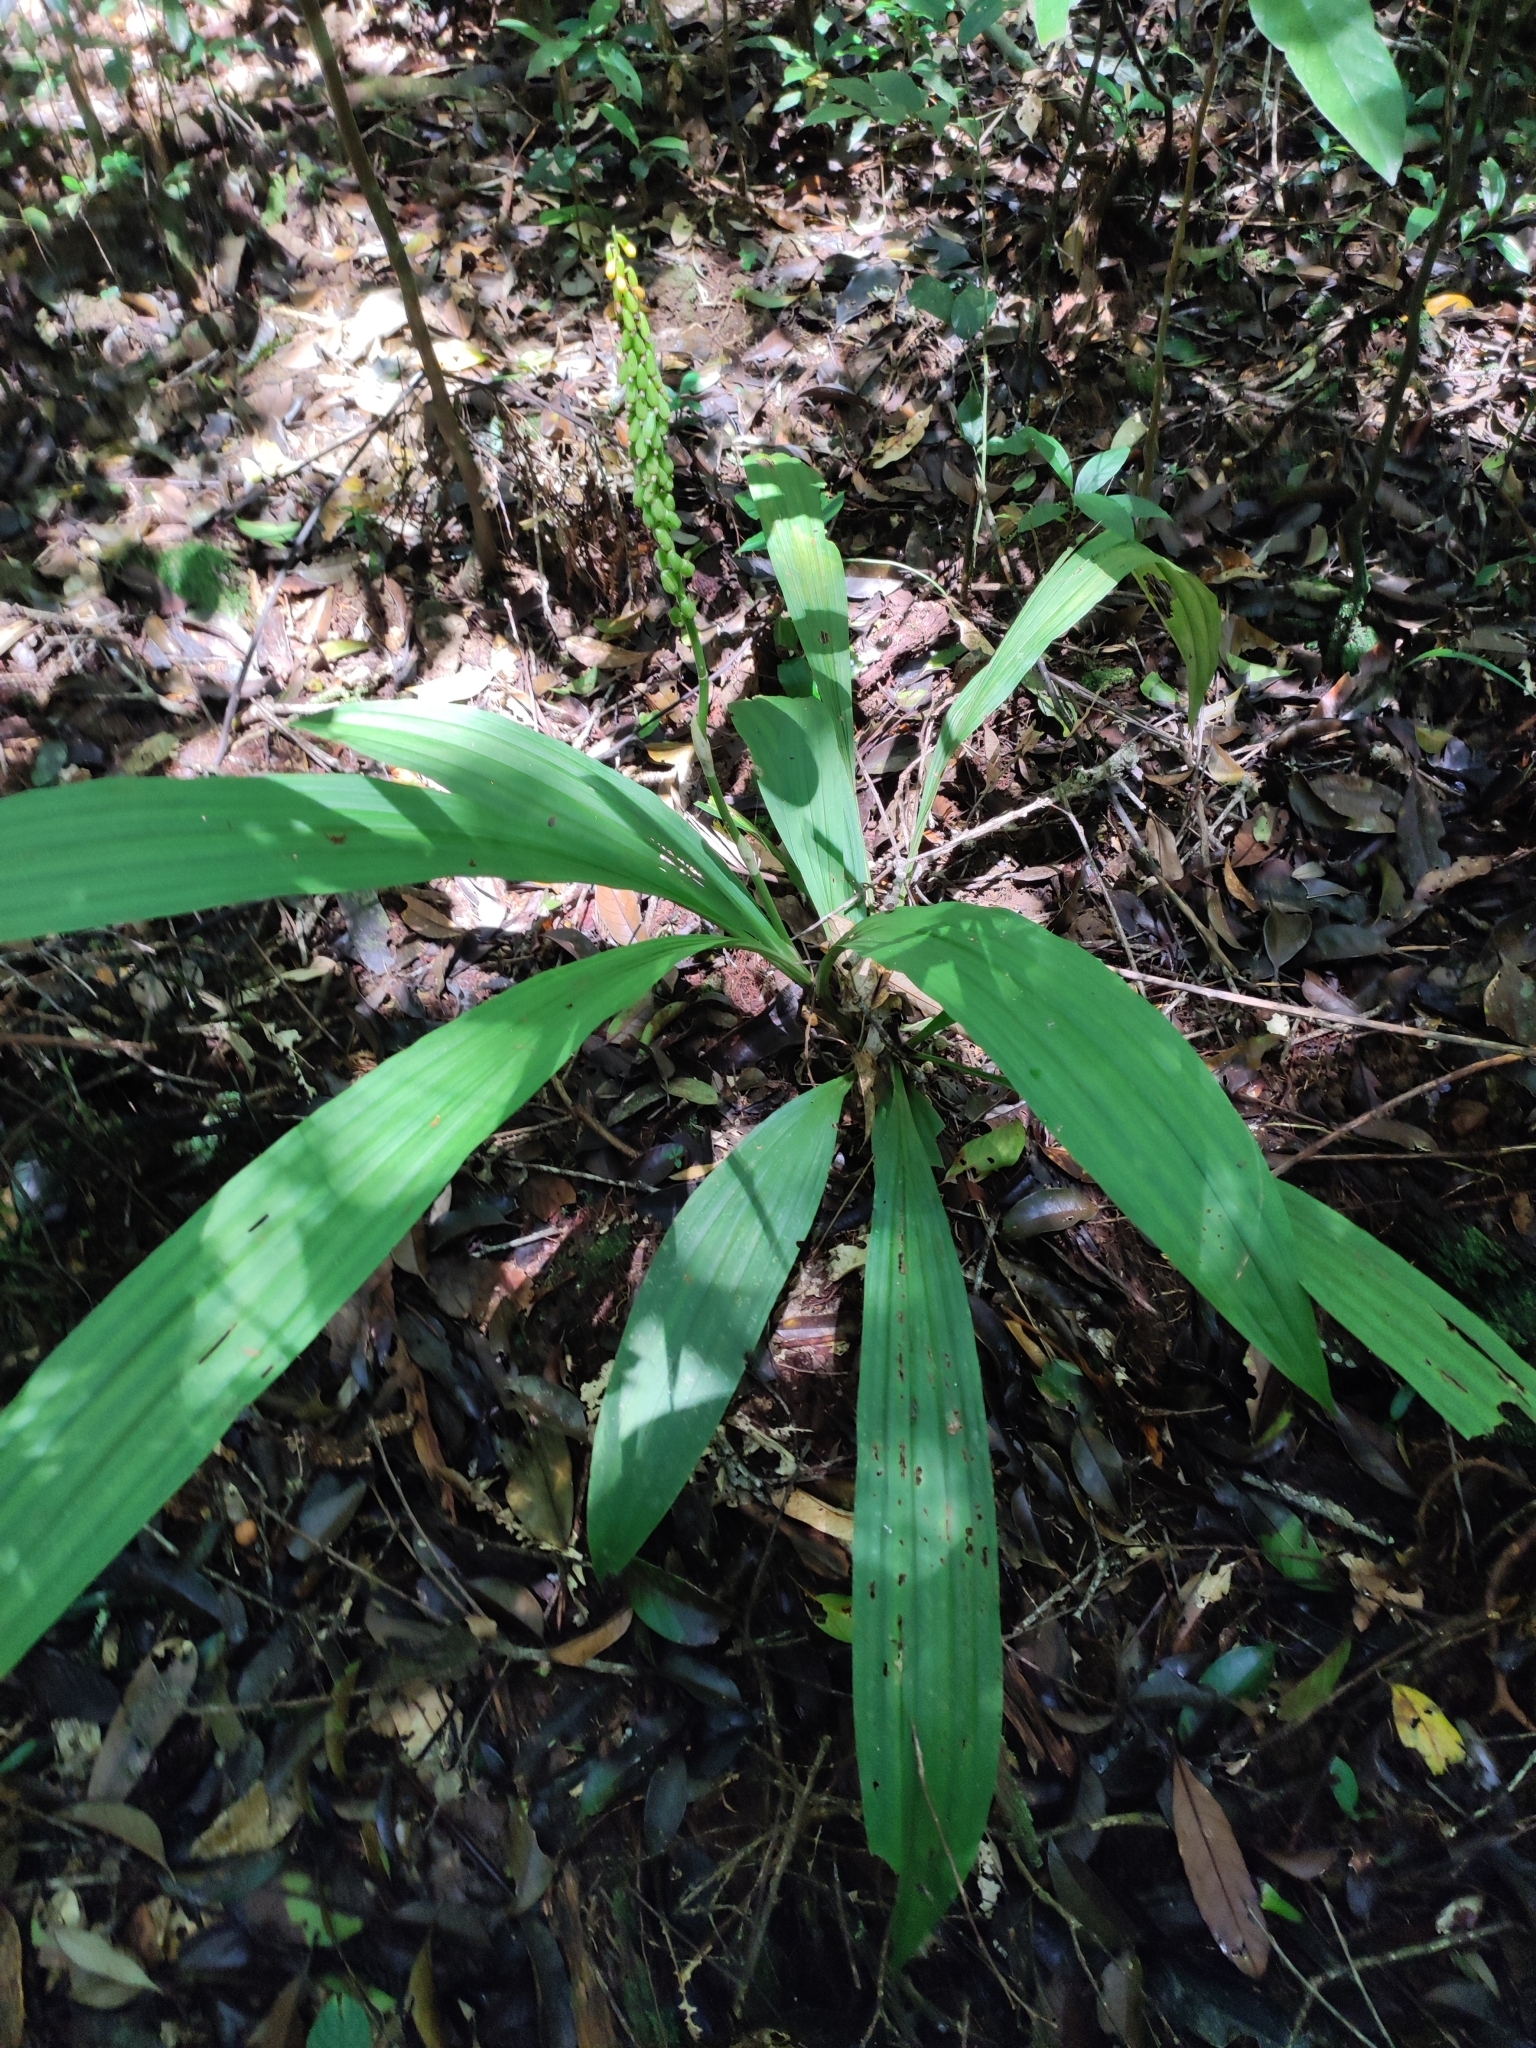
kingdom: Plantae
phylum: Tracheophyta
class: Liliopsida
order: Asparagales
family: Orchidaceae
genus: Calanthe
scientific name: Calanthe lyroglossa
